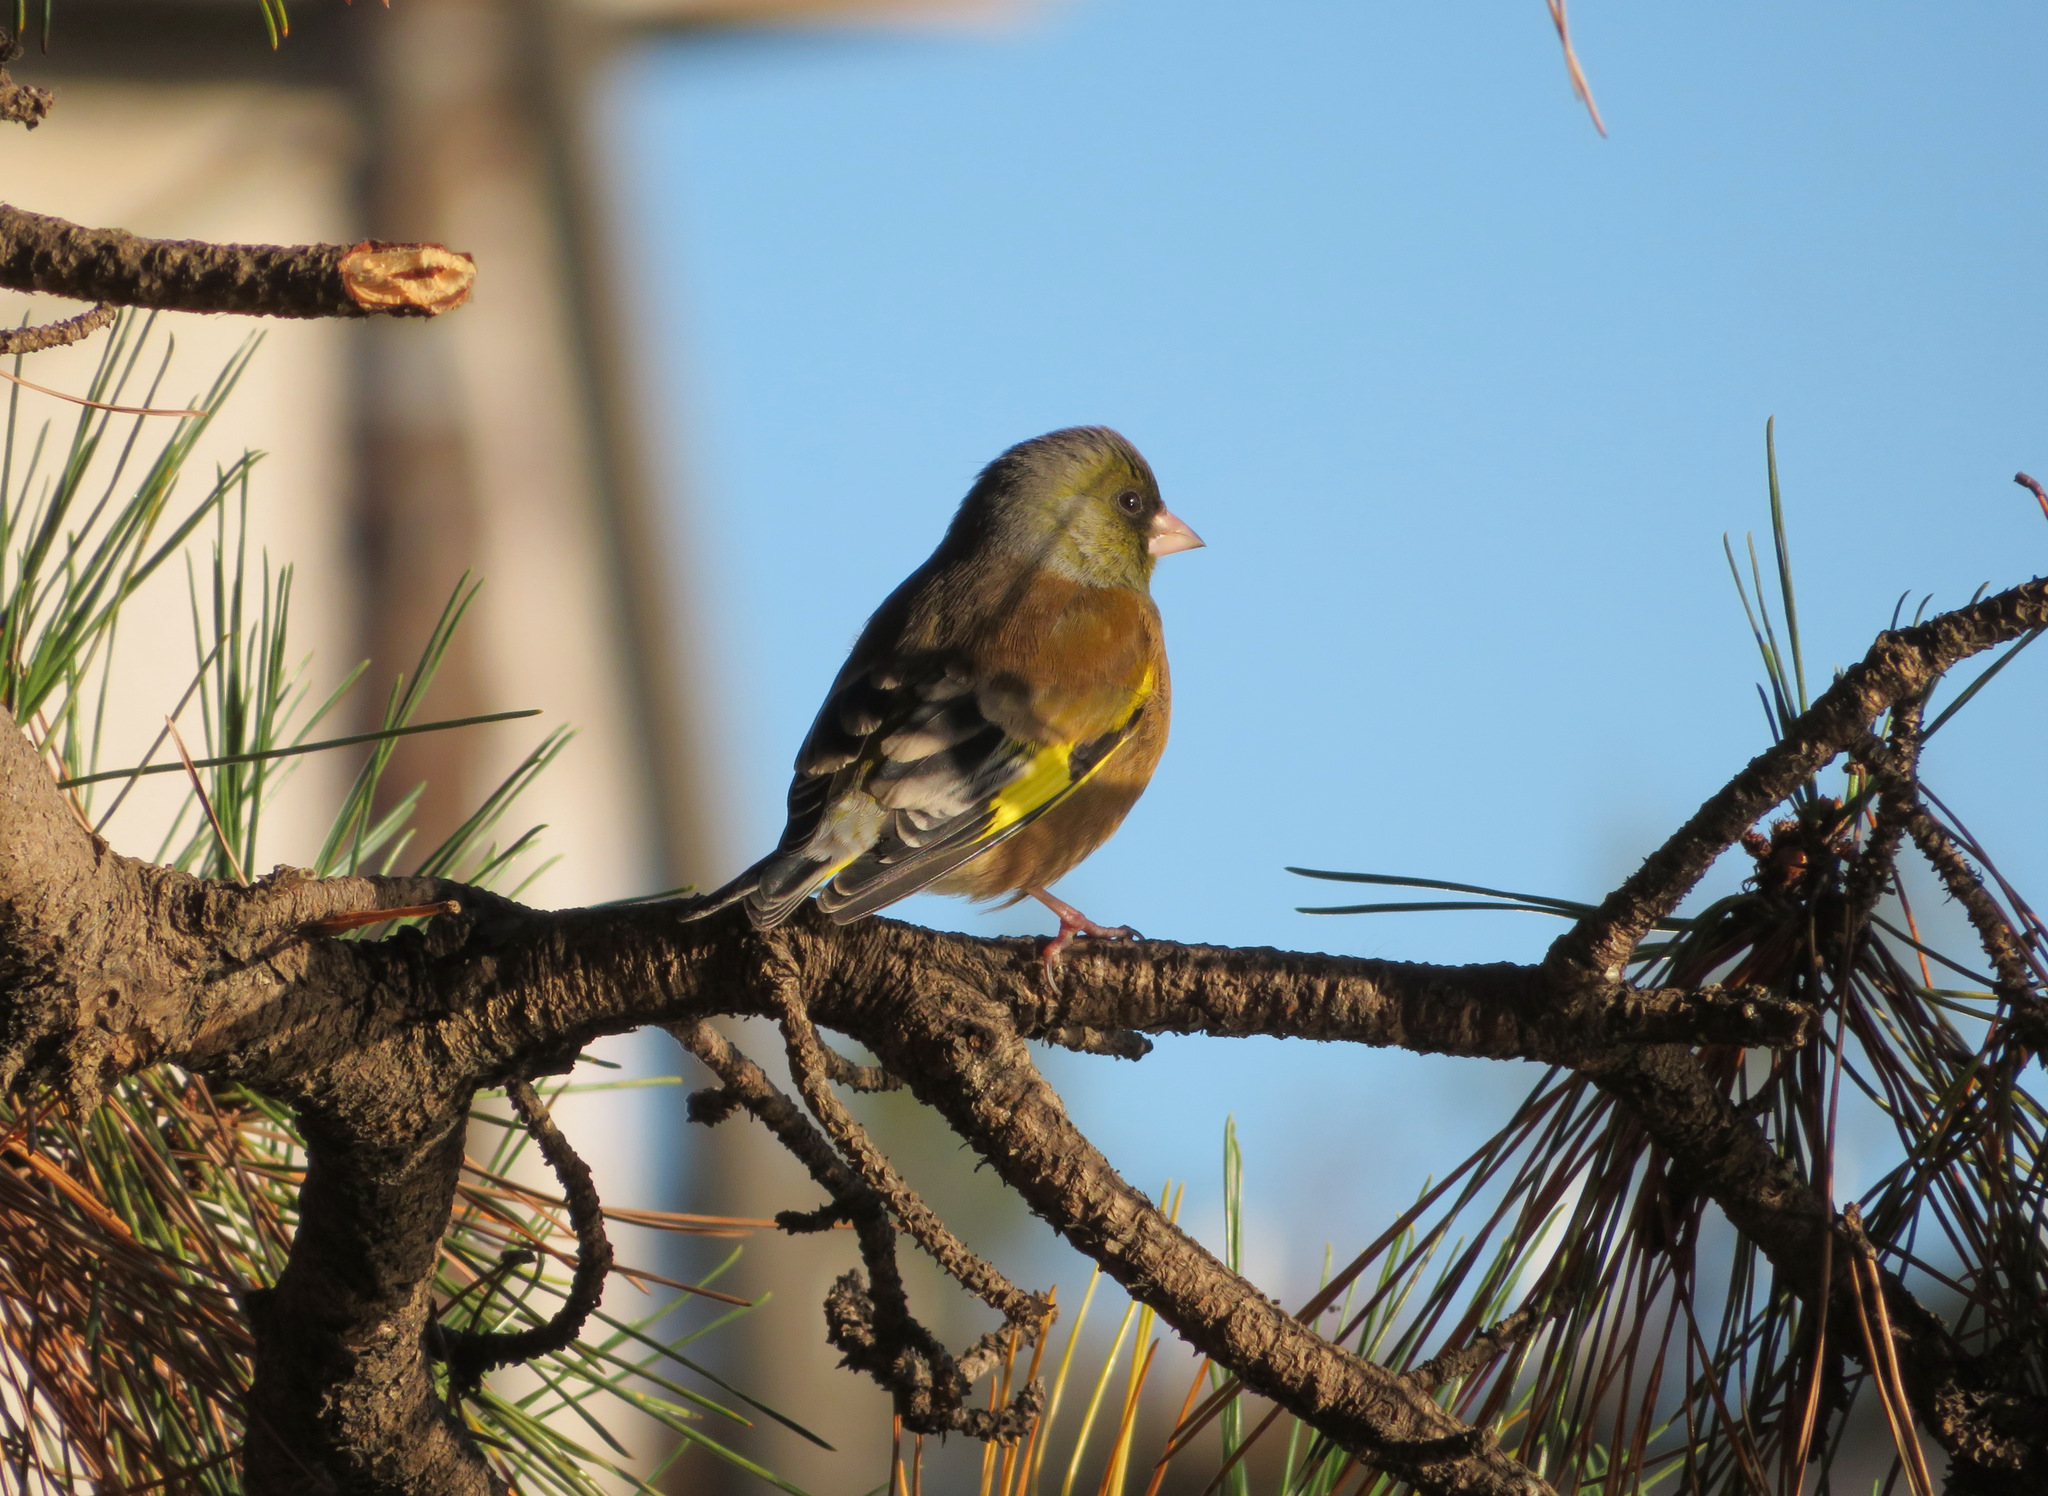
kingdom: Plantae
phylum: Tracheophyta
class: Liliopsida
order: Poales
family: Poaceae
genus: Chloris
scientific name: Chloris sinica
